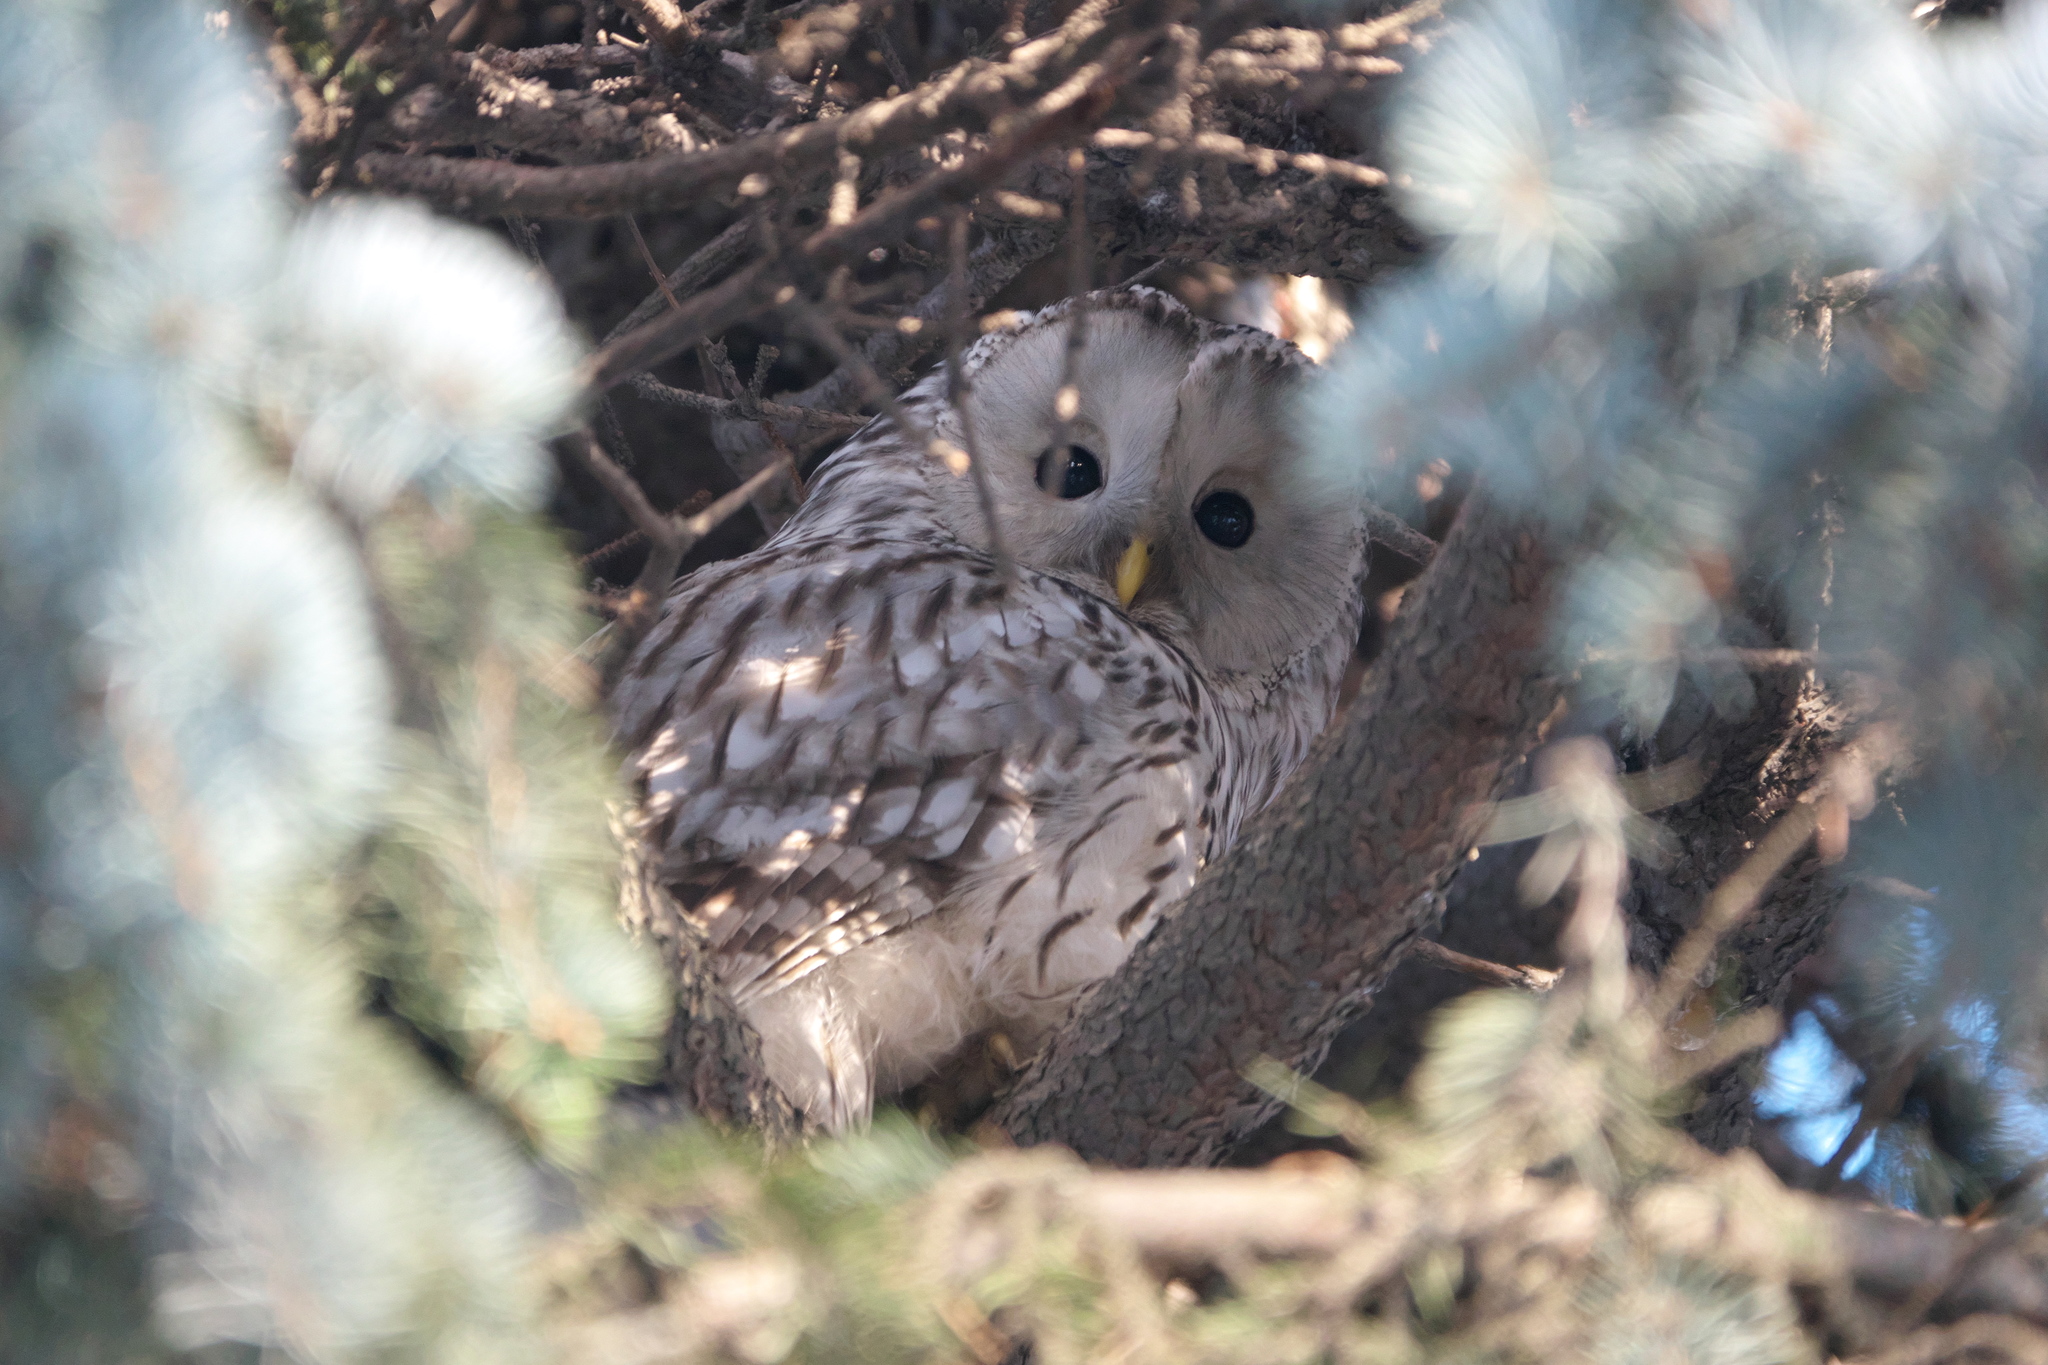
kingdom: Animalia
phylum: Chordata
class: Aves
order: Strigiformes
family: Strigidae
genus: Strix
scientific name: Strix uralensis
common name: Ural owl
